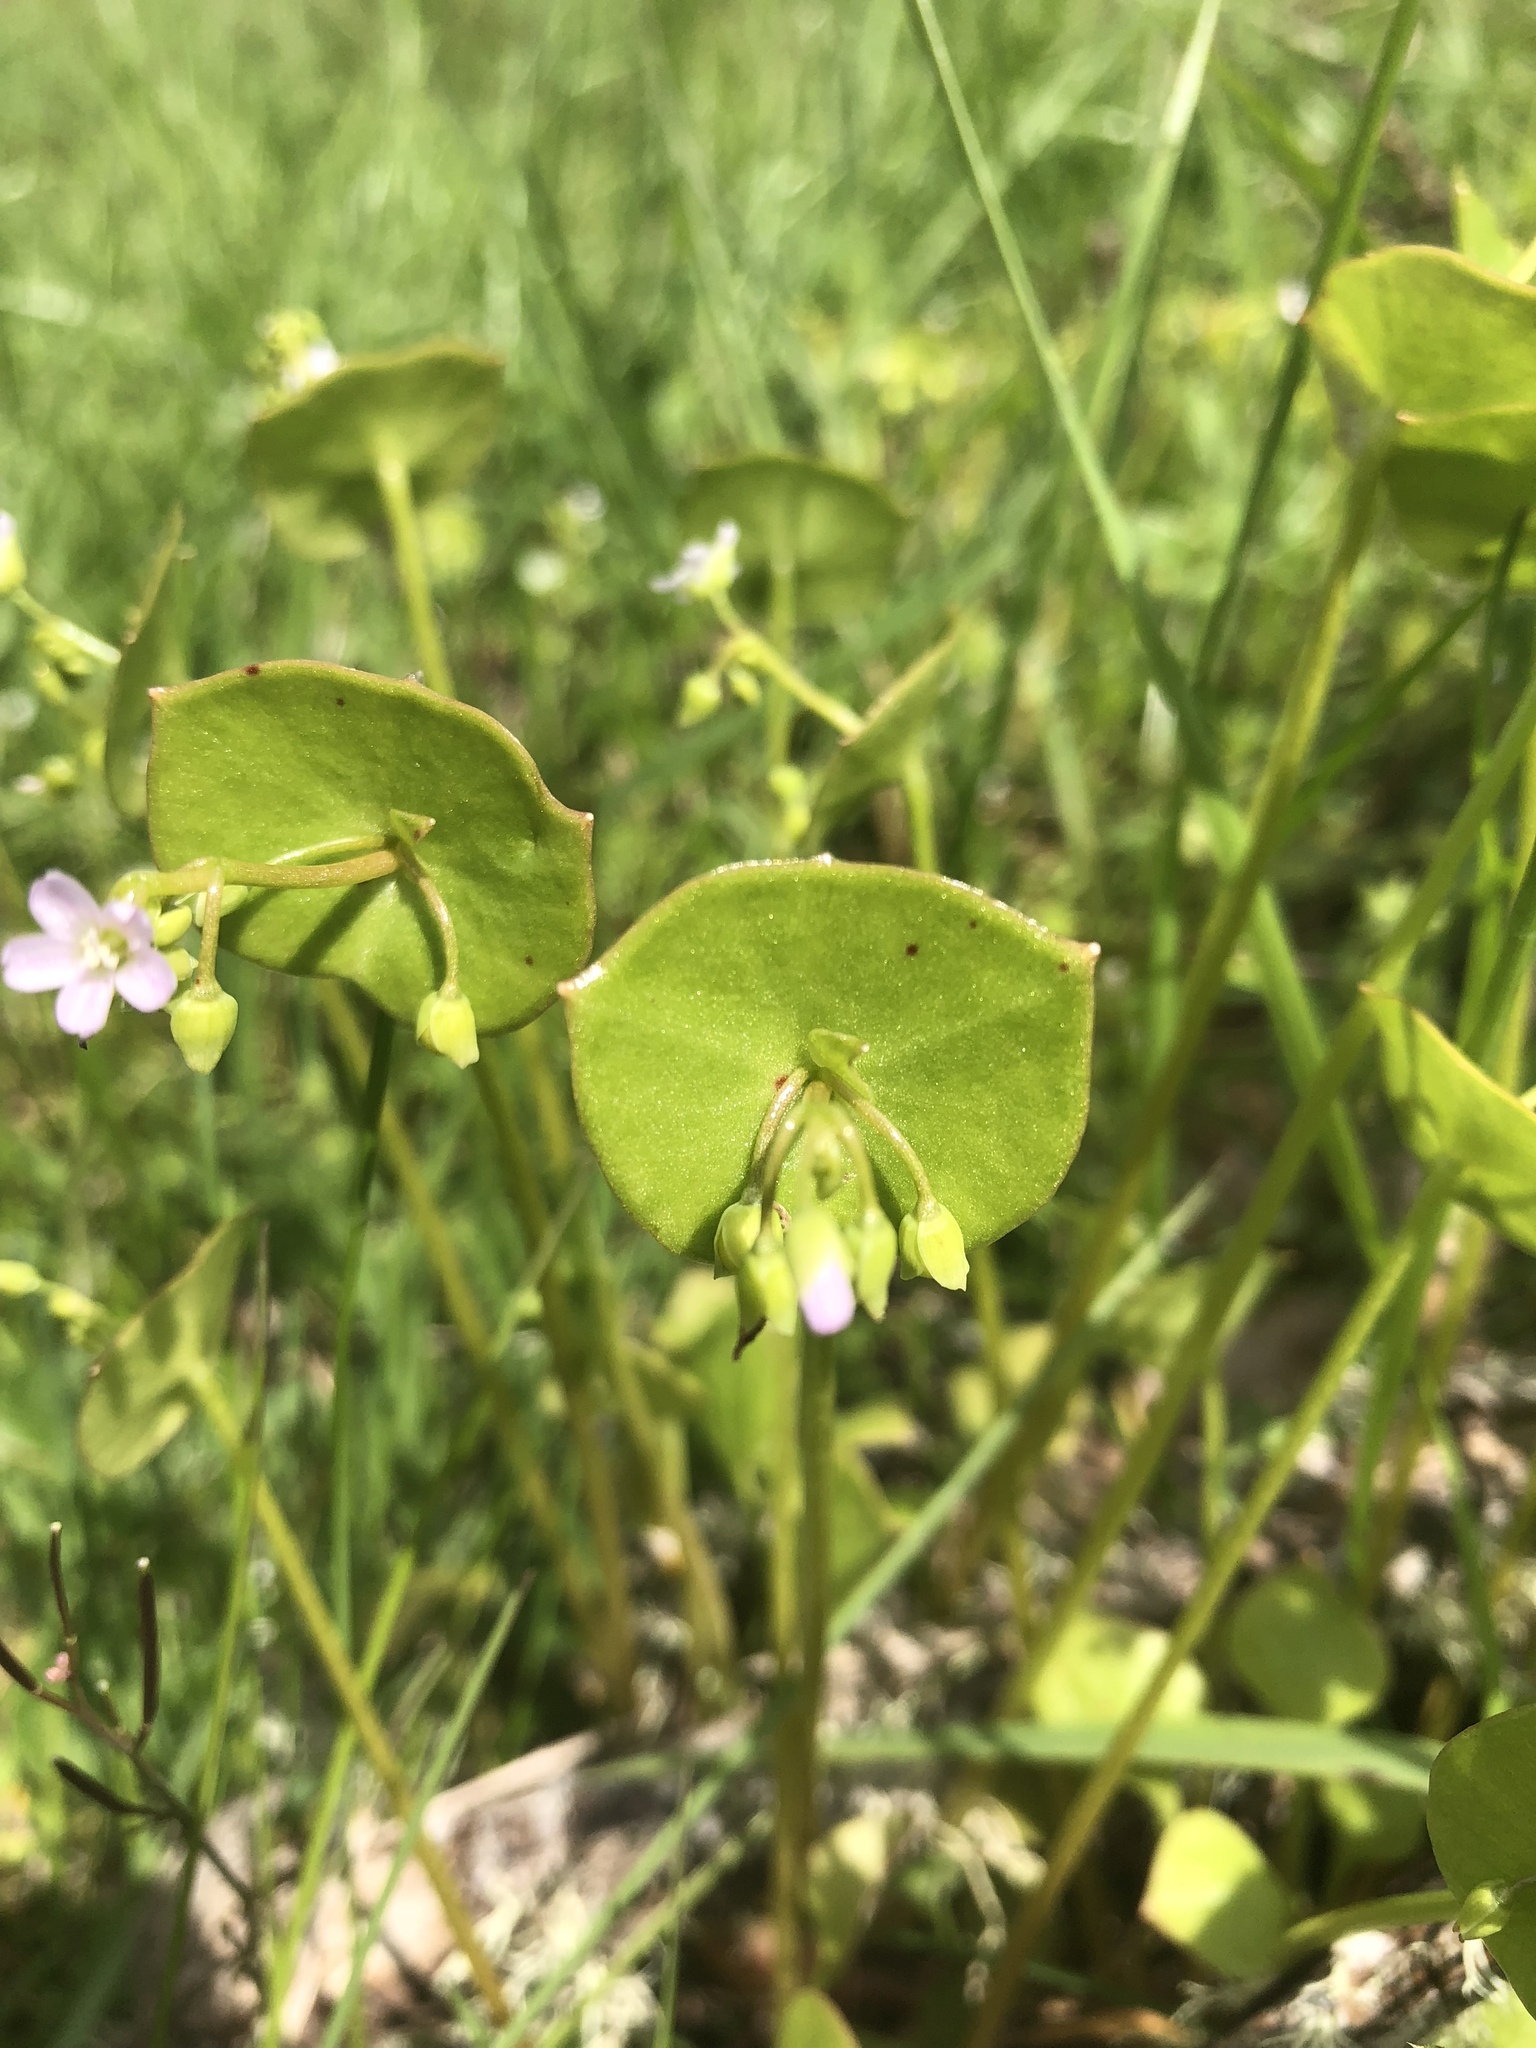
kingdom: Plantae
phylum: Tracheophyta
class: Magnoliopsida
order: Caryophyllales
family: Montiaceae
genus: Claytonia
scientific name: Claytonia perfoliata
